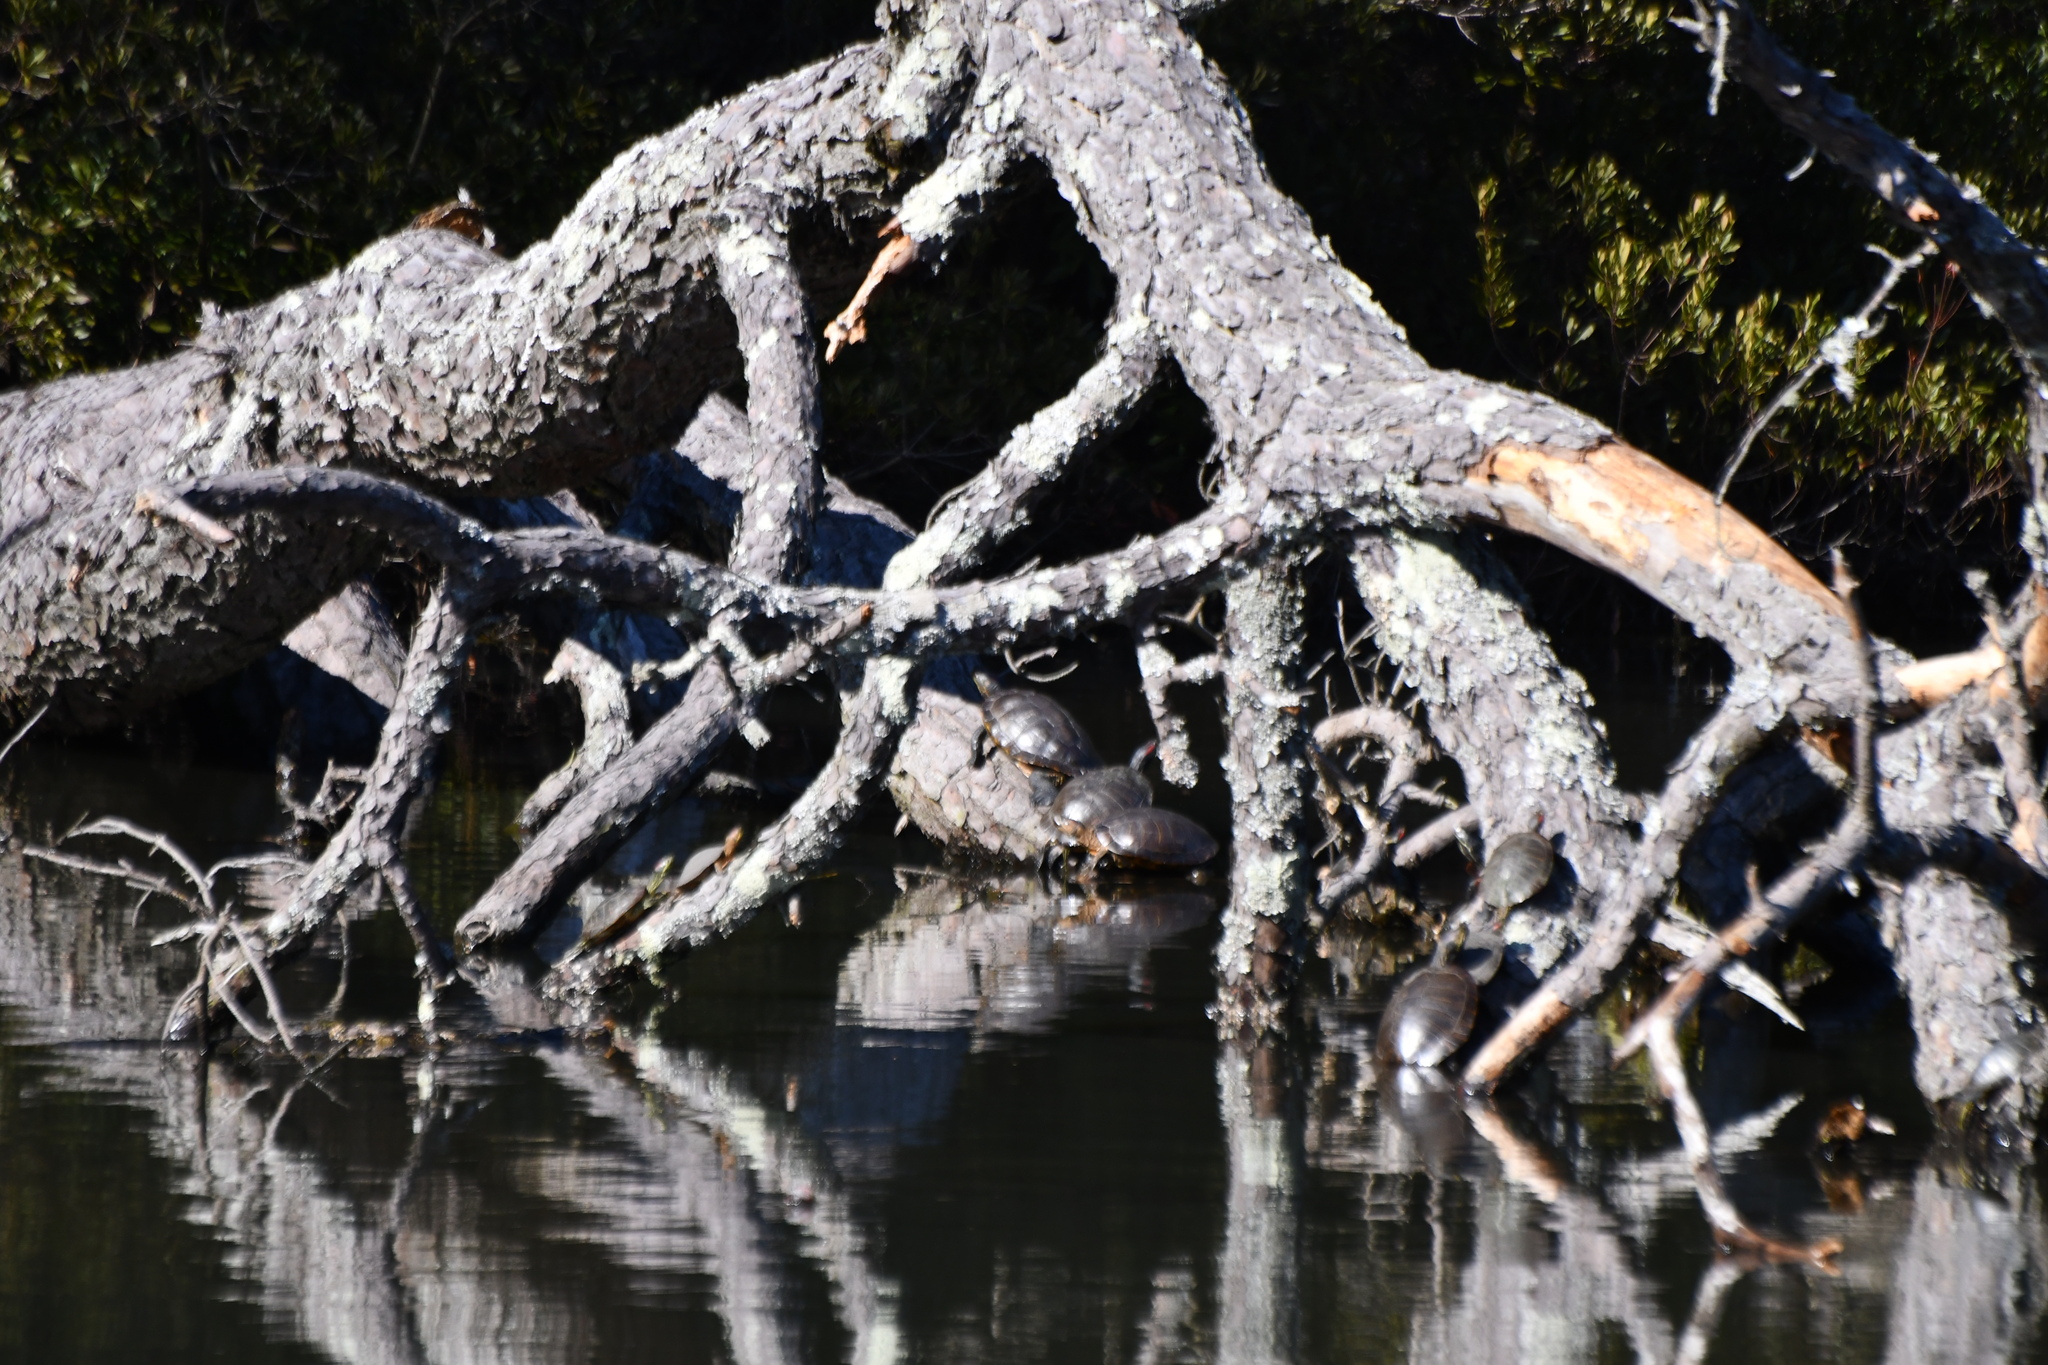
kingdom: Animalia
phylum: Chordata
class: Testudines
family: Emydidae
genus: Trachemys
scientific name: Trachemys scripta
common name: Slider
